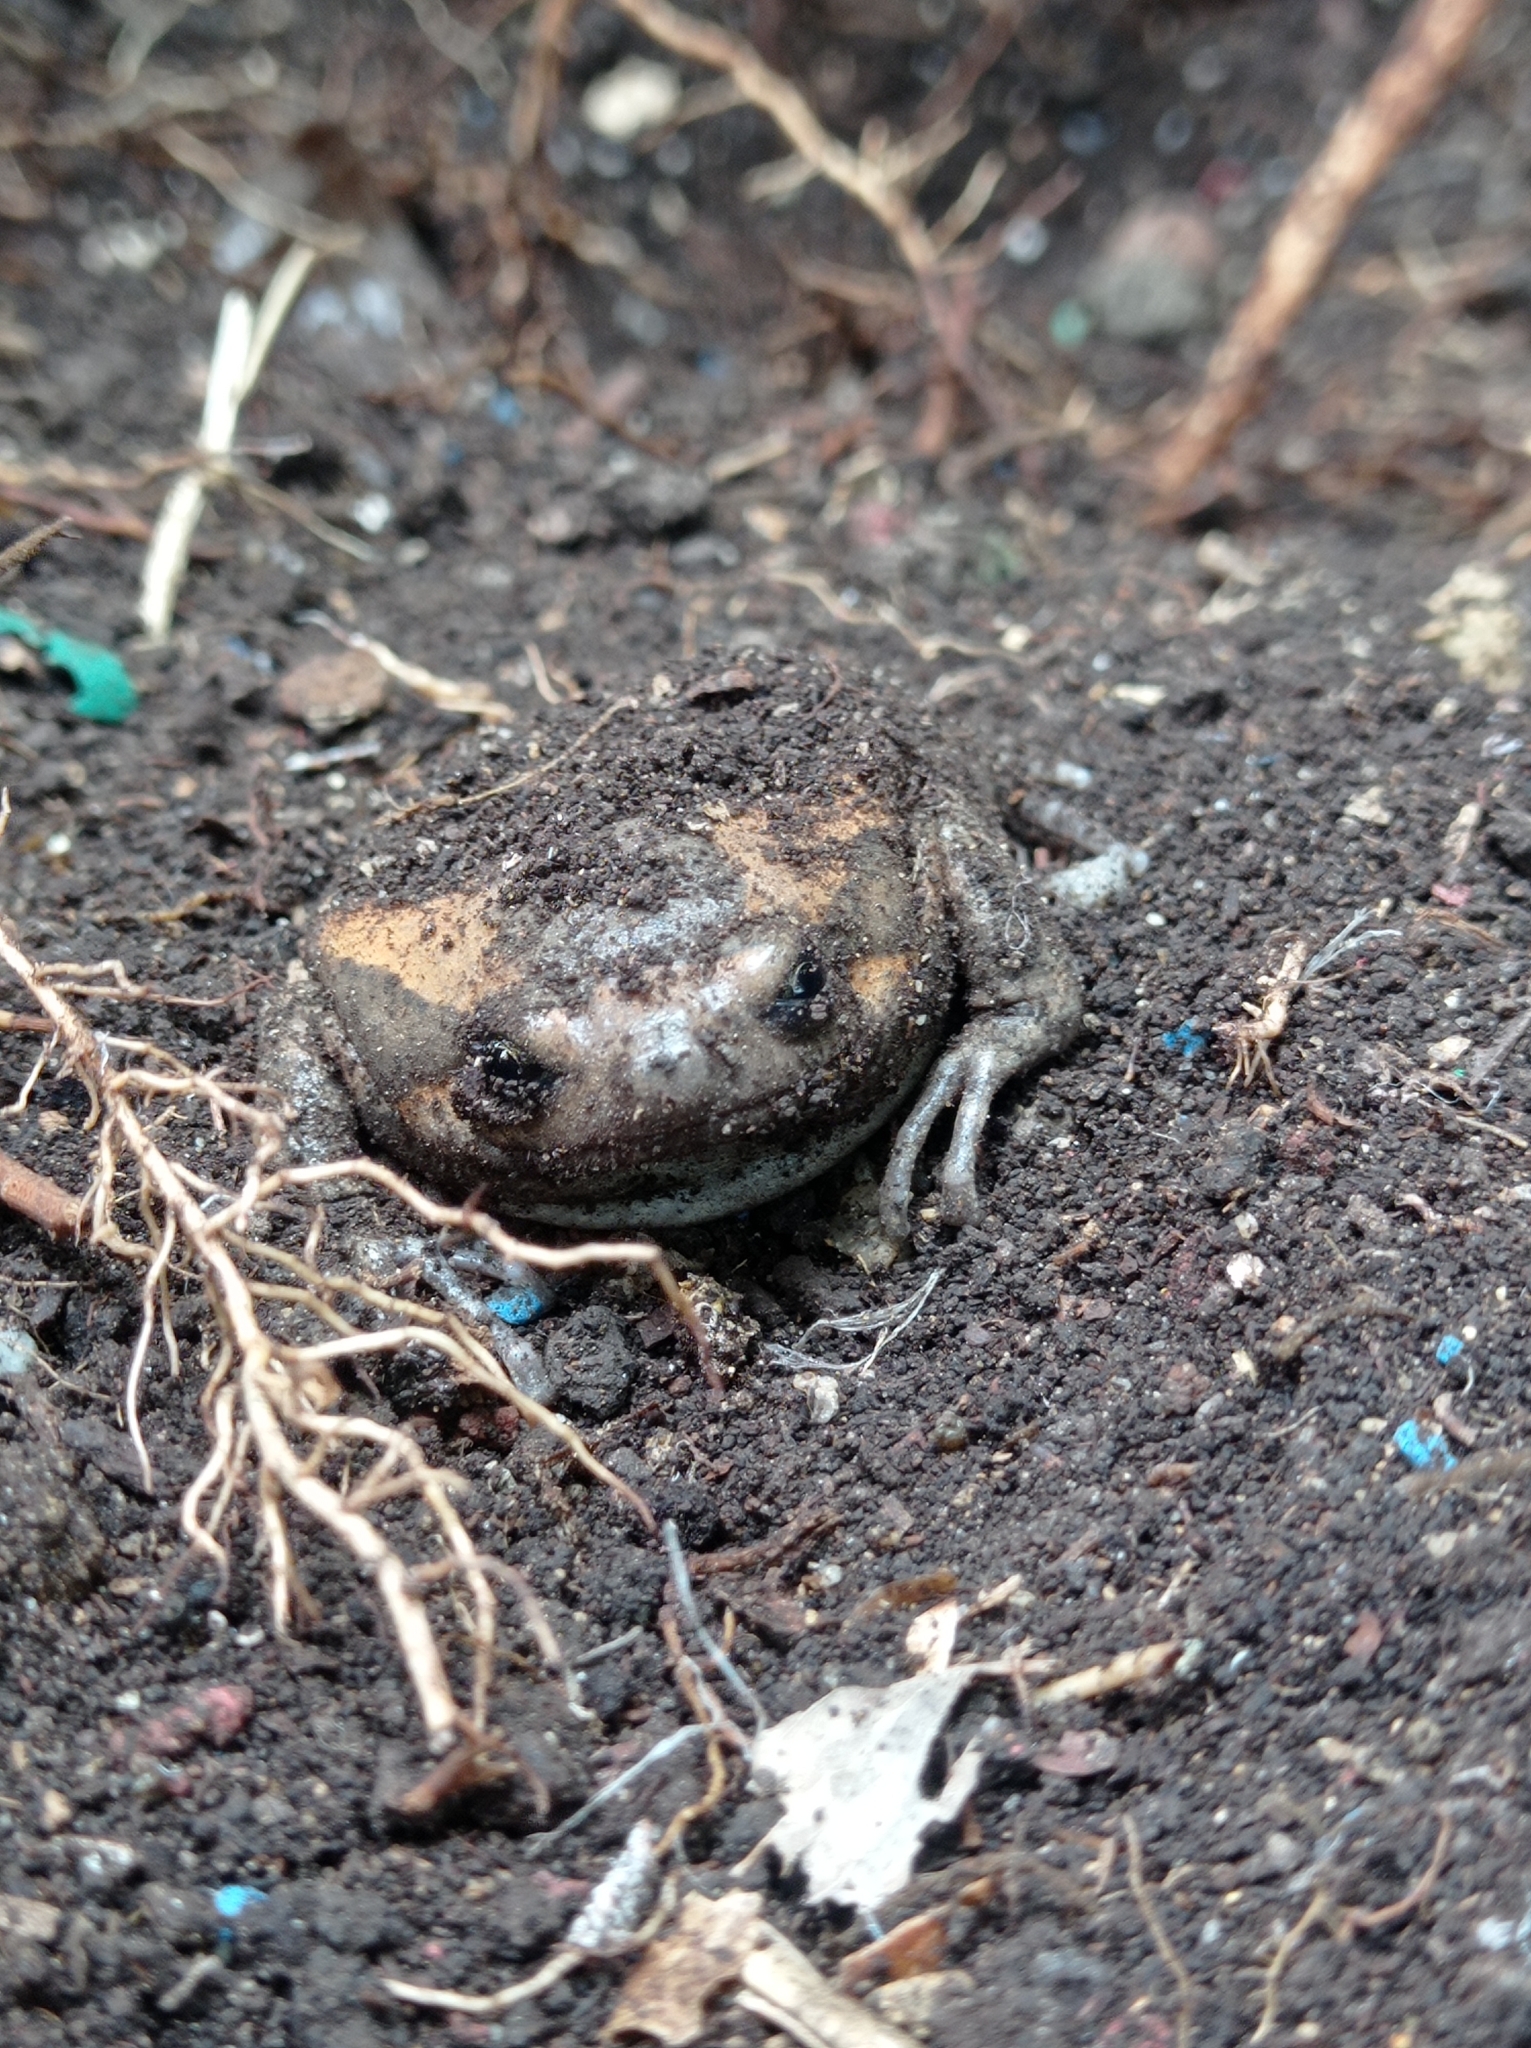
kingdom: Animalia
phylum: Chordata
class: Amphibia
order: Anura
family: Microhylidae
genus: Kaloula
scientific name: Kaloula pulchra
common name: Common,banded bullfrog
